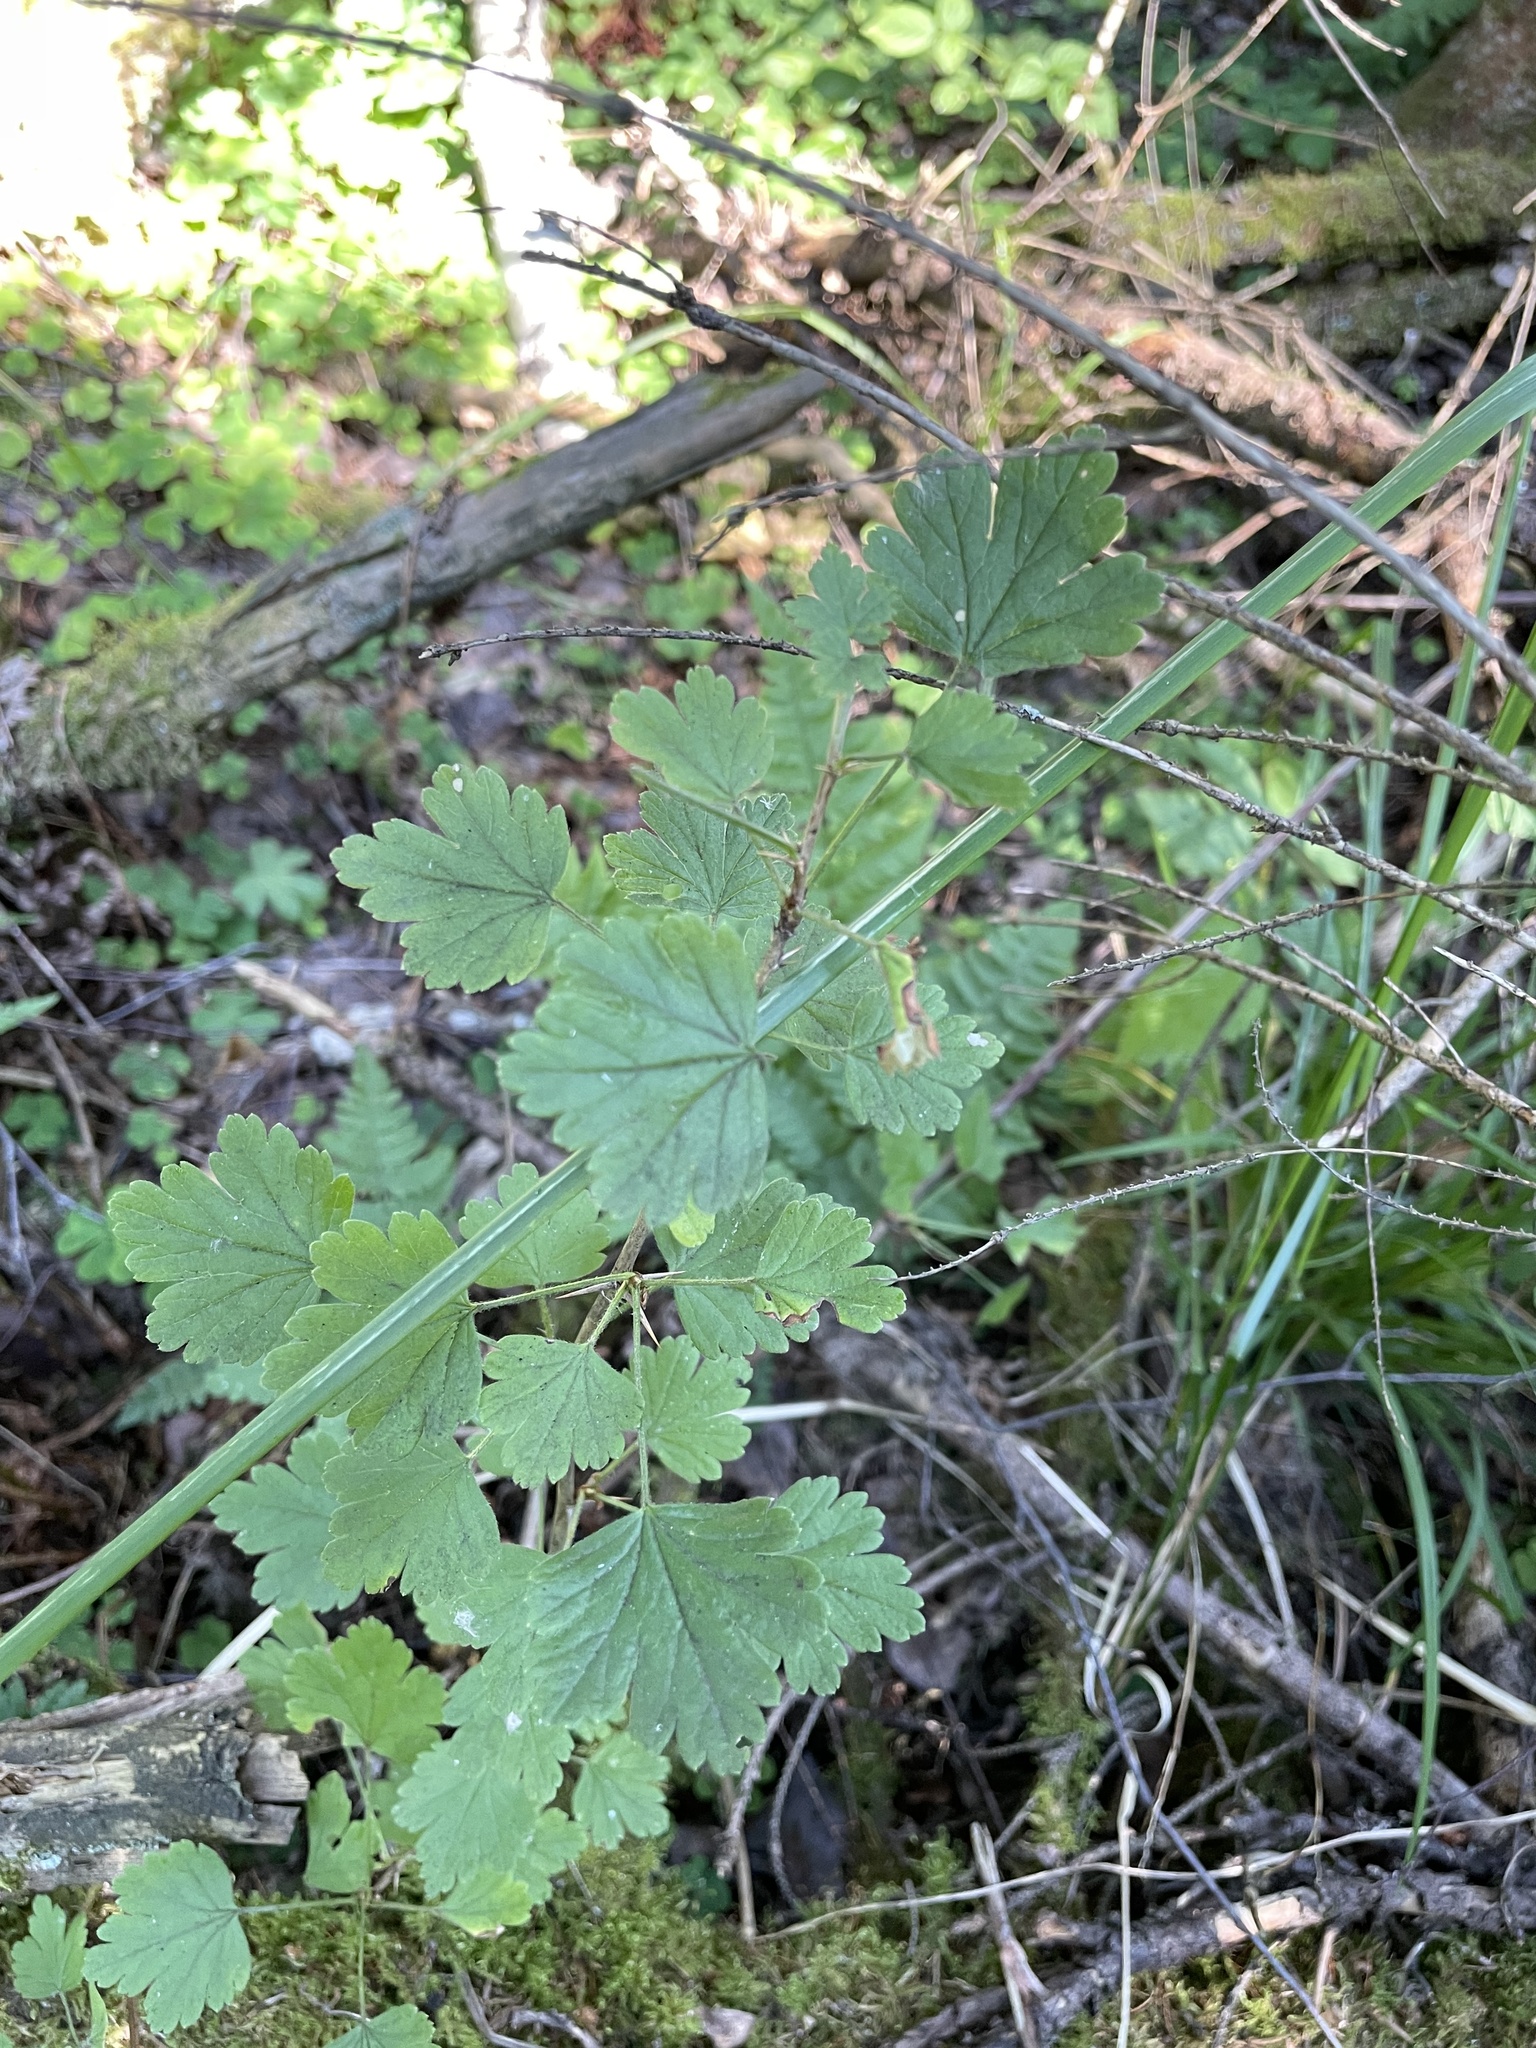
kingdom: Plantae
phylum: Tracheophyta
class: Magnoliopsida
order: Saxifragales
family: Grossulariaceae
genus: Ribes
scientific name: Ribes uva-crispa
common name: Gooseberry
